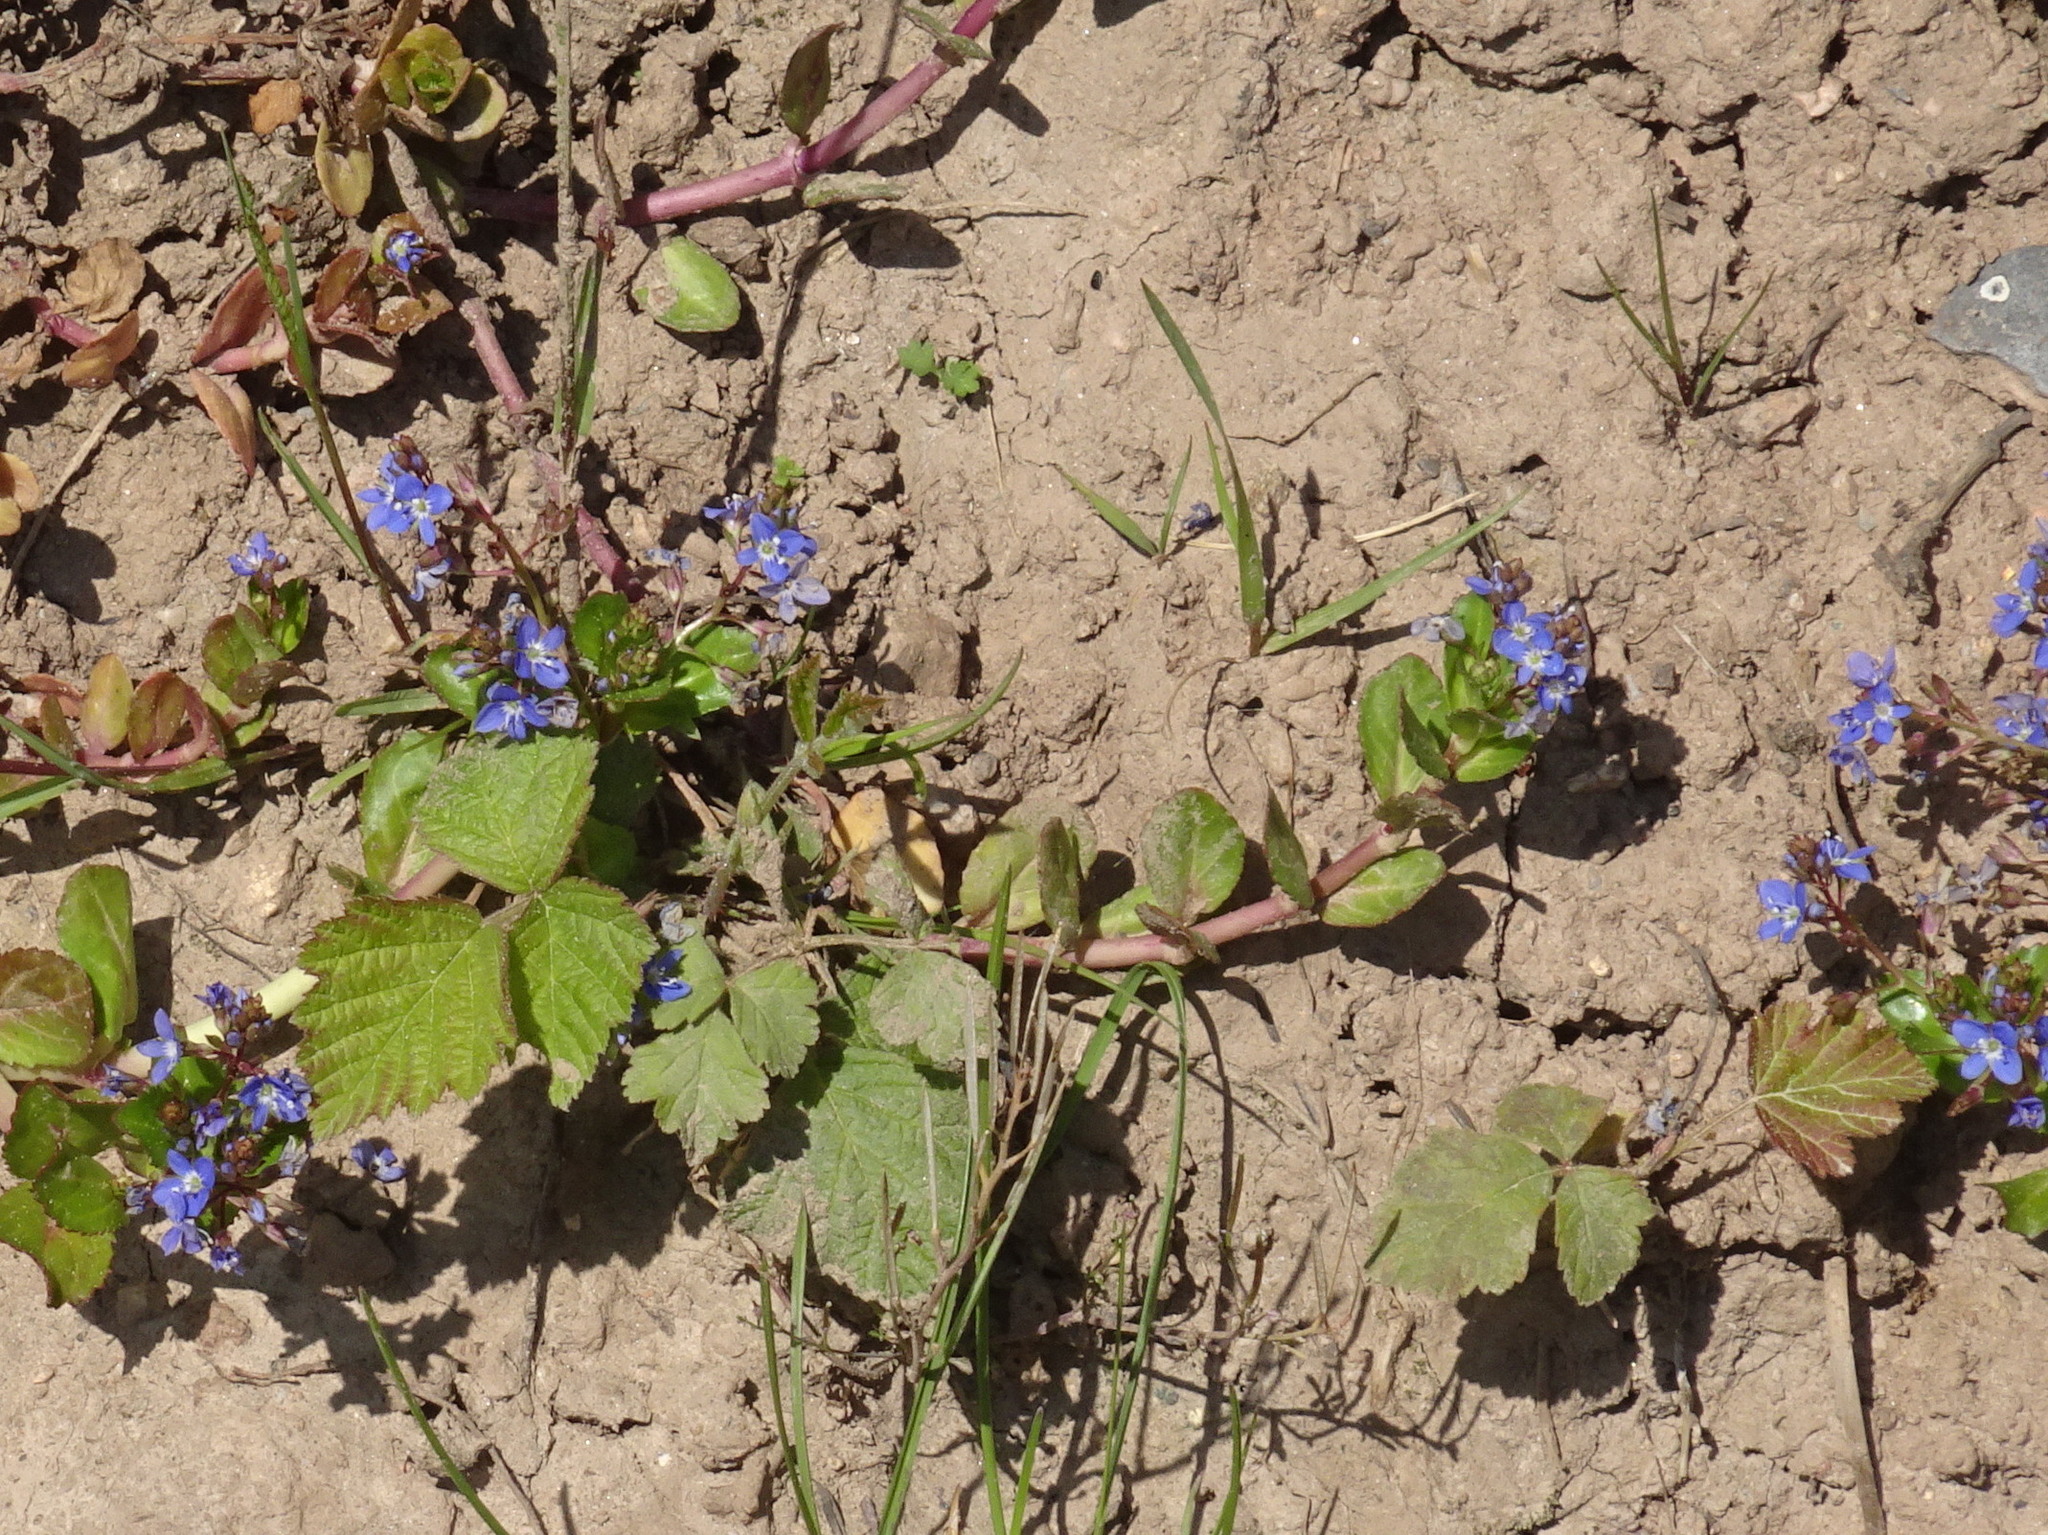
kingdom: Plantae
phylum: Tracheophyta
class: Magnoliopsida
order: Lamiales
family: Plantaginaceae
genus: Veronica
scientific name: Veronica beccabunga
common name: Brooklime
